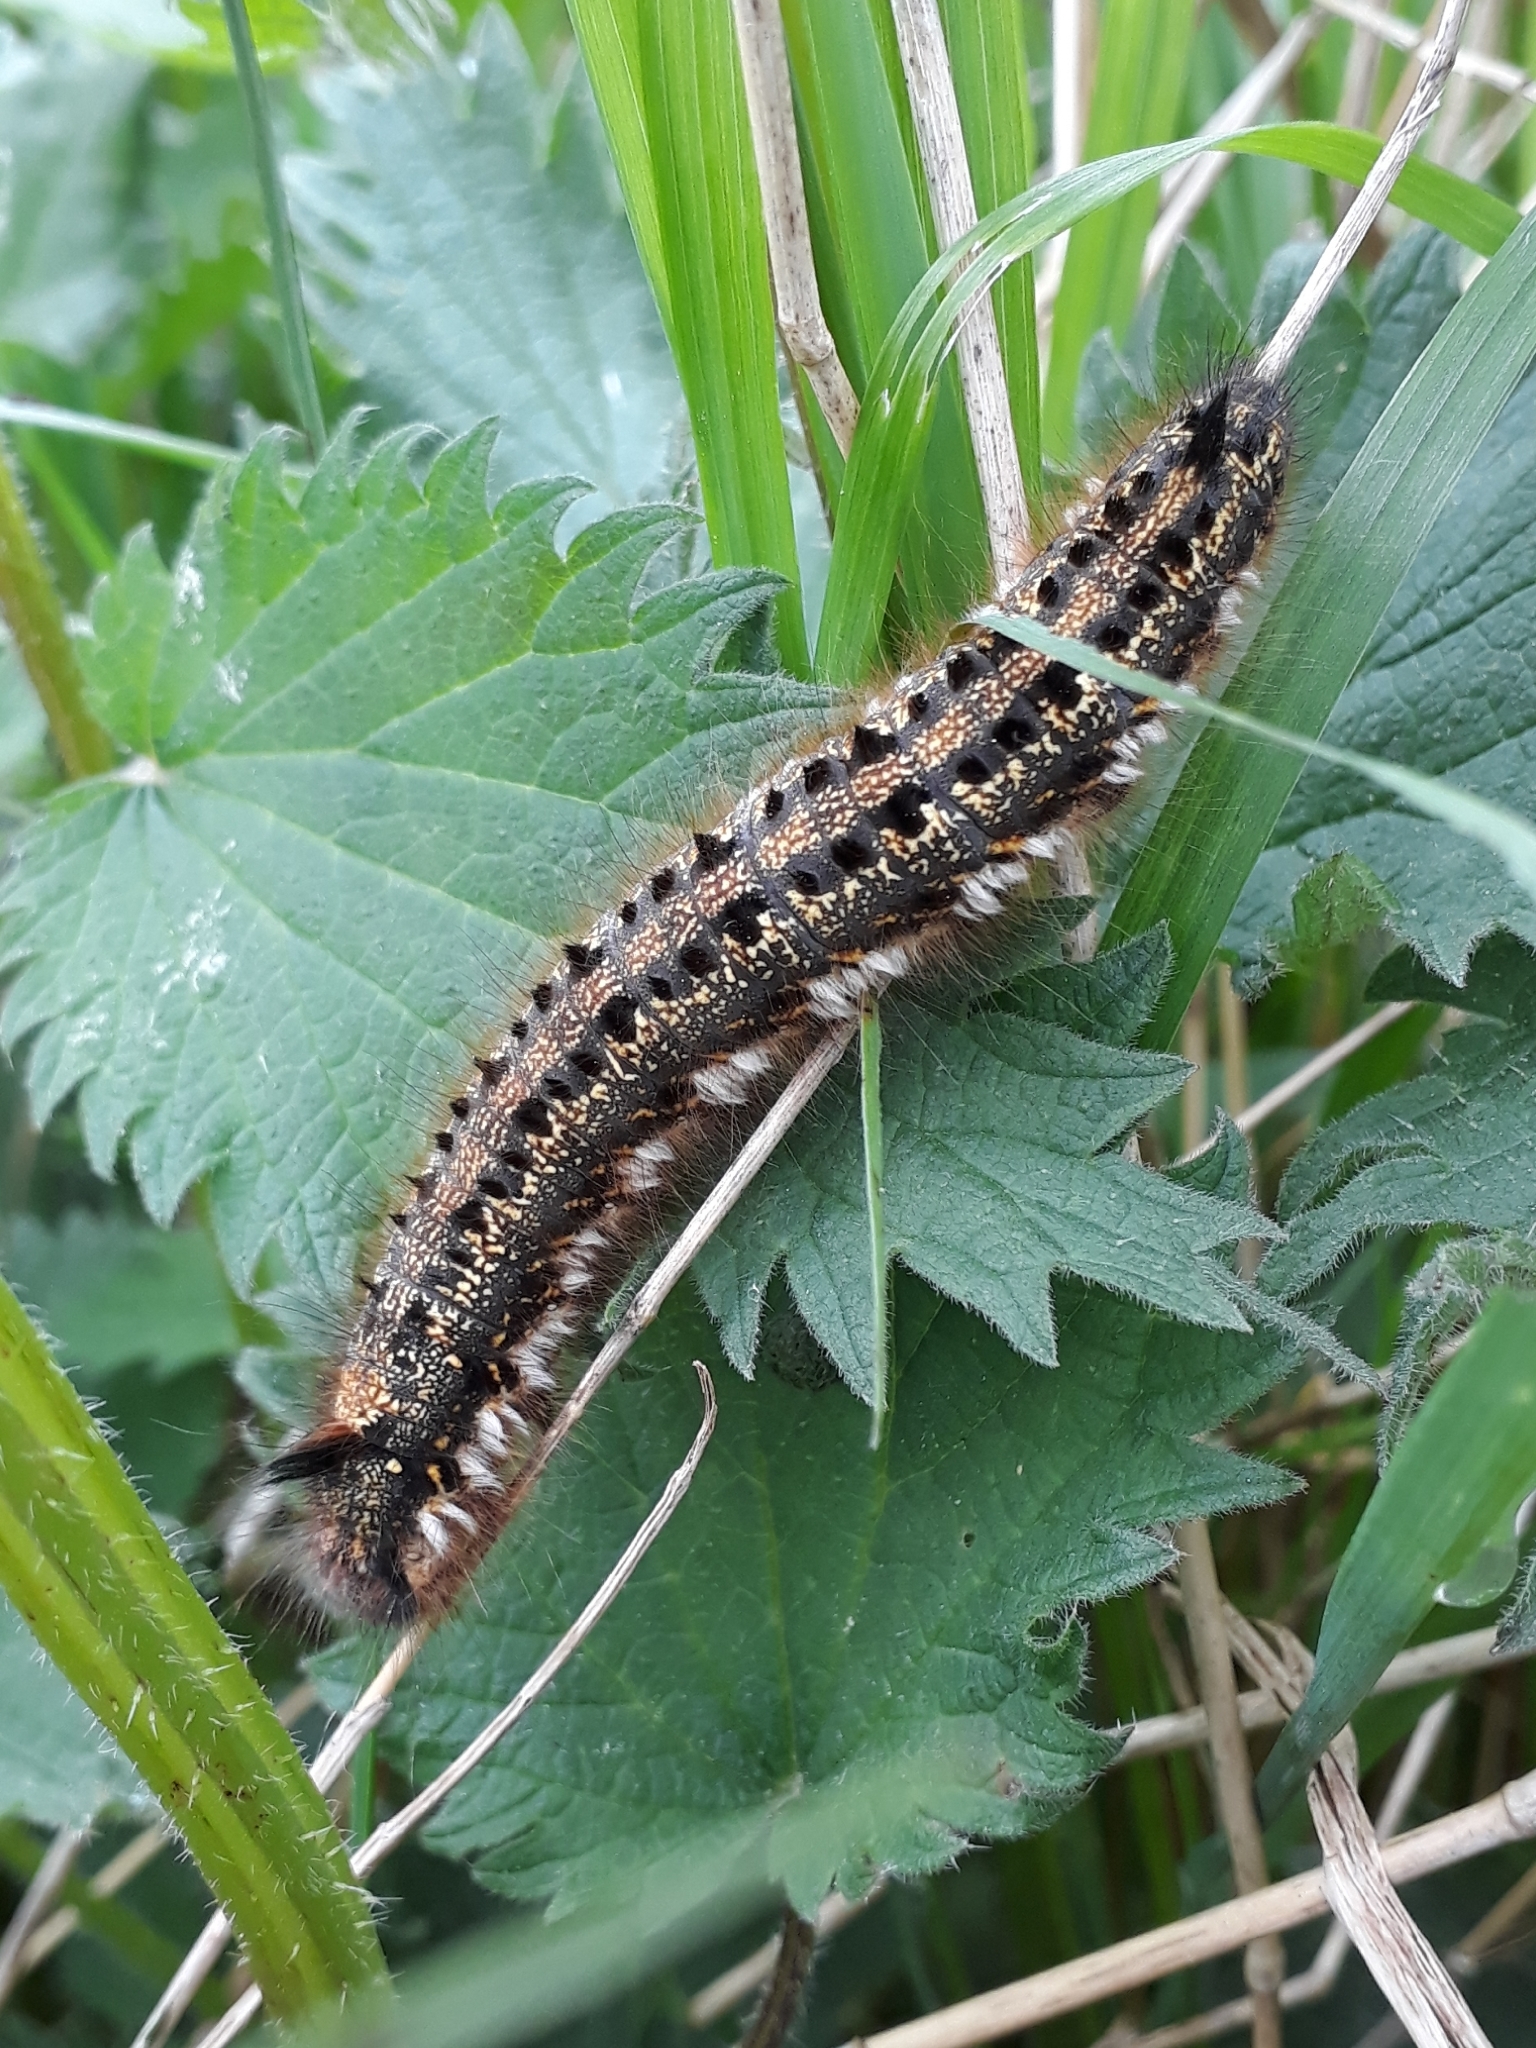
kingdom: Animalia
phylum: Arthropoda
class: Insecta
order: Lepidoptera
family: Lasiocampidae
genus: Euthrix
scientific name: Euthrix potatoria
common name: Drinker
